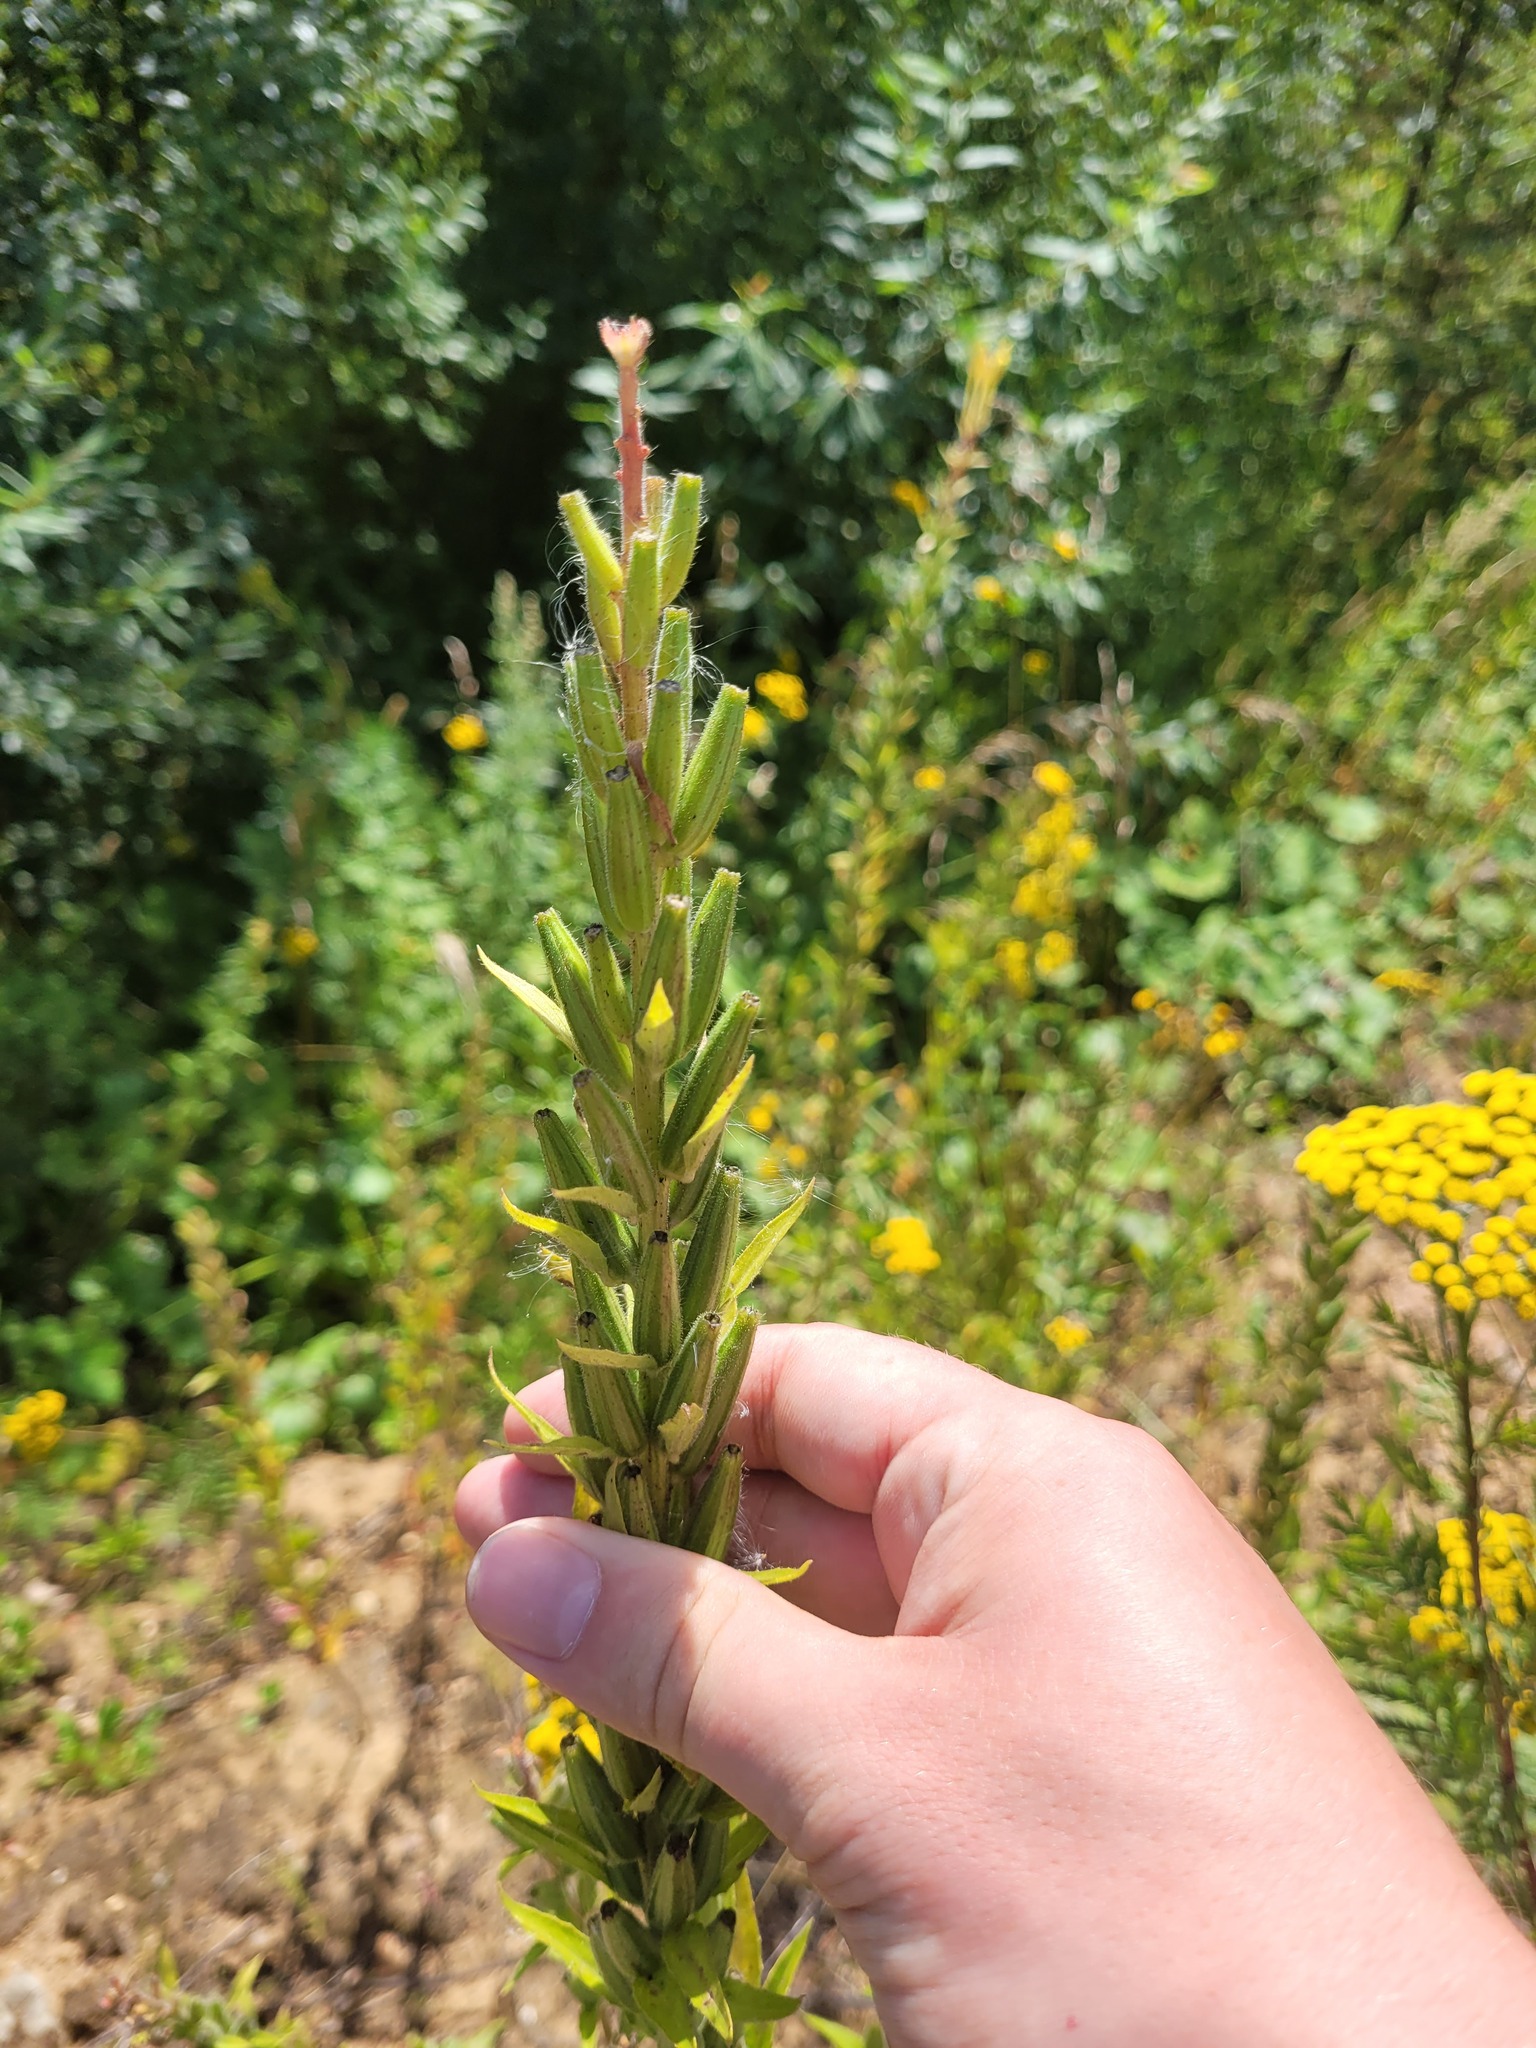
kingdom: Plantae
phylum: Tracheophyta
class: Magnoliopsida
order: Myrtales
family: Onagraceae
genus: Oenothera
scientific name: Oenothera rubricaulis
